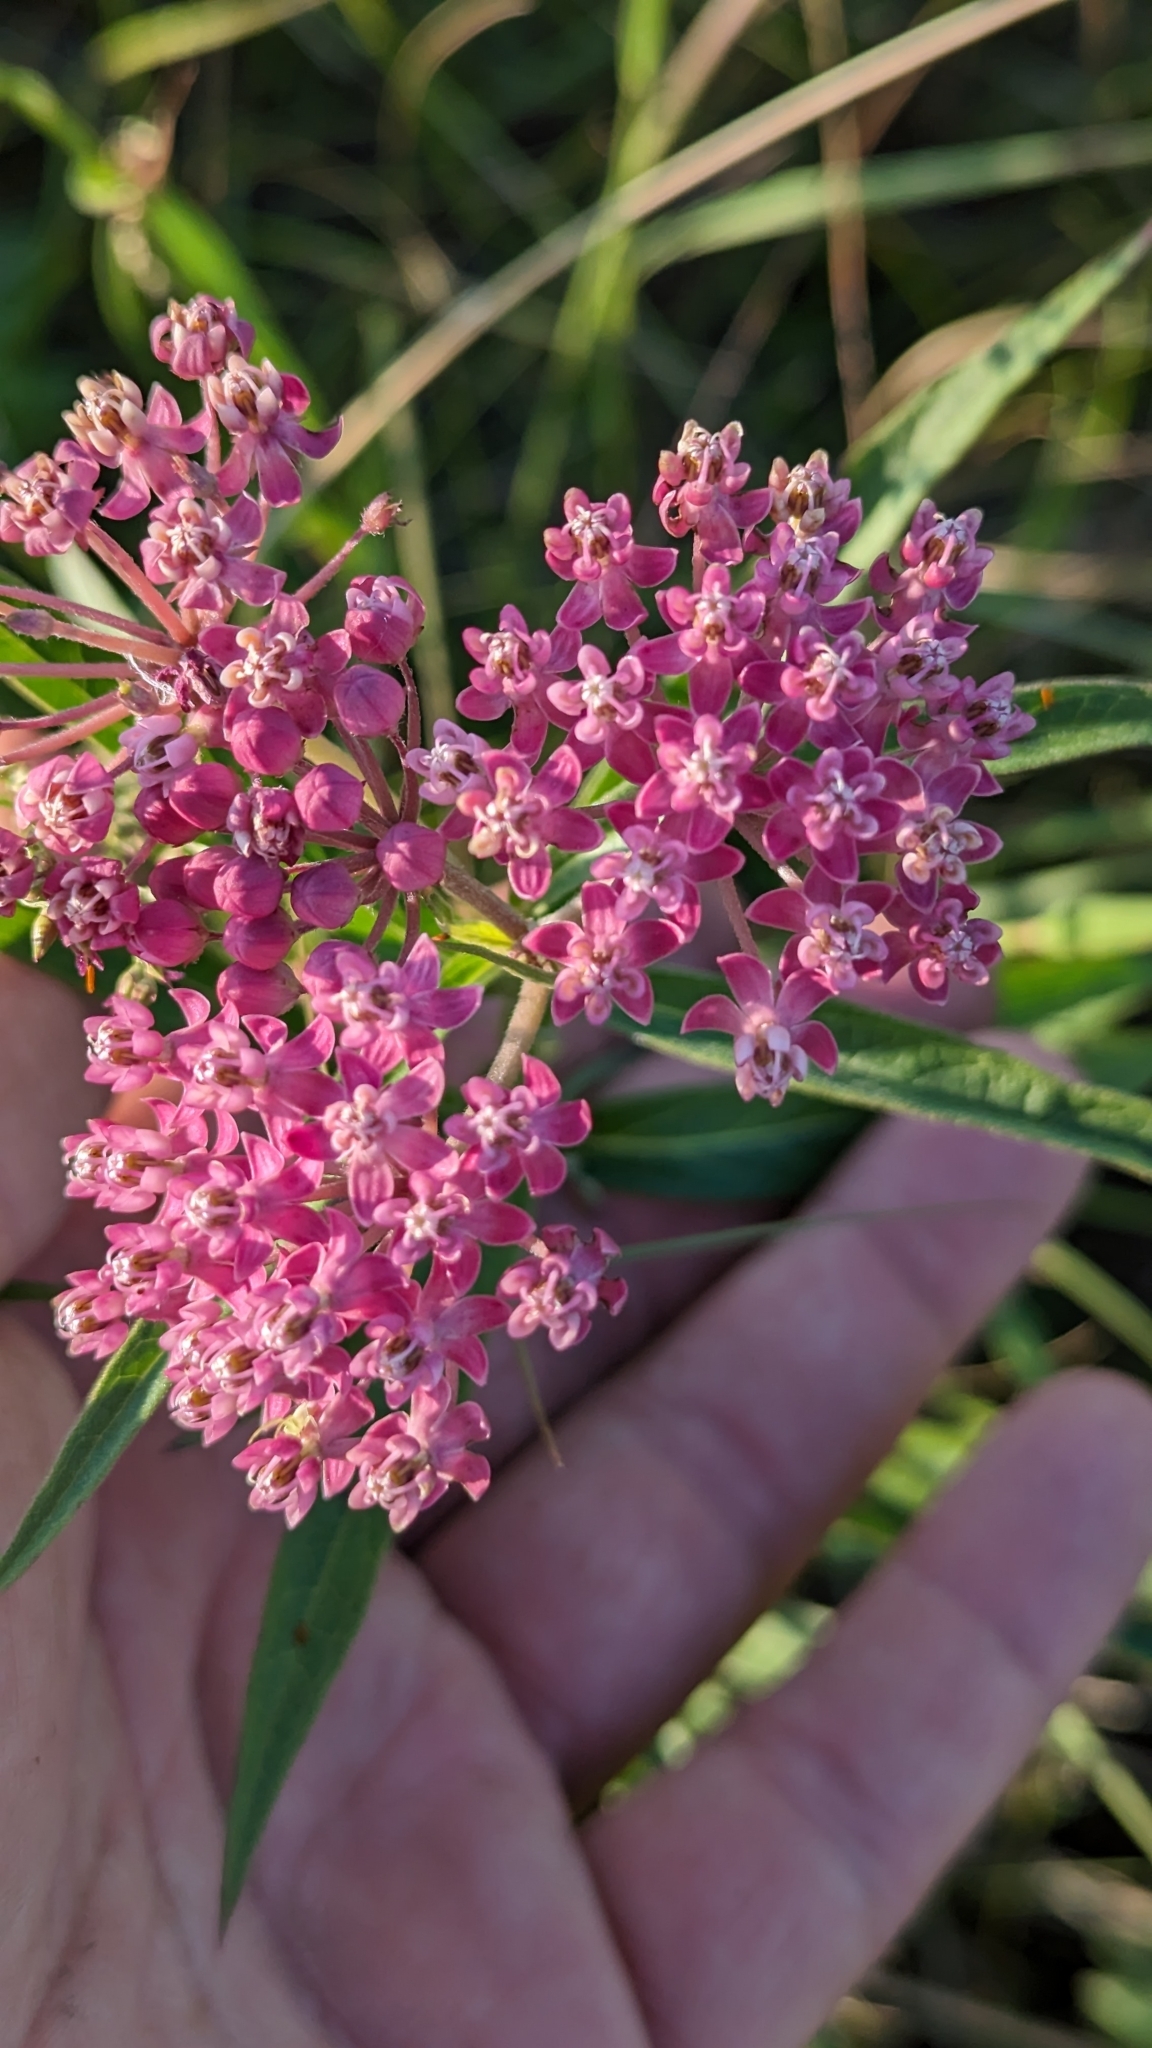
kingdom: Plantae
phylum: Tracheophyta
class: Magnoliopsida
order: Gentianales
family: Apocynaceae
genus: Asclepias
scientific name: Asclepias incarnata
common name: Swamp milkweed
